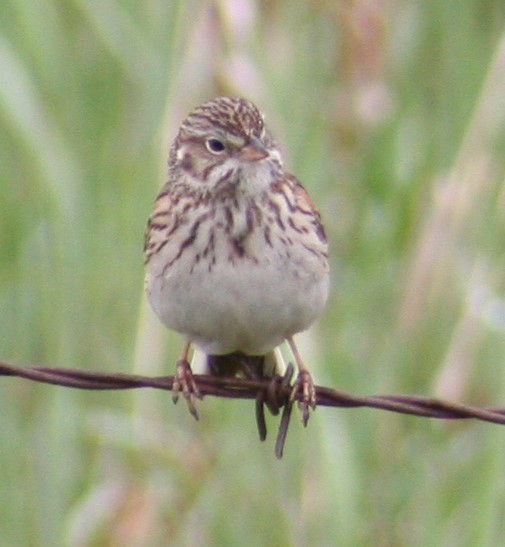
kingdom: Animalia
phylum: Chordata
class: Aves
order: Passeriformes
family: Passerellidae
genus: Pooecetes
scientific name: Pooecetes gramineus
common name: Vesper sparrow
